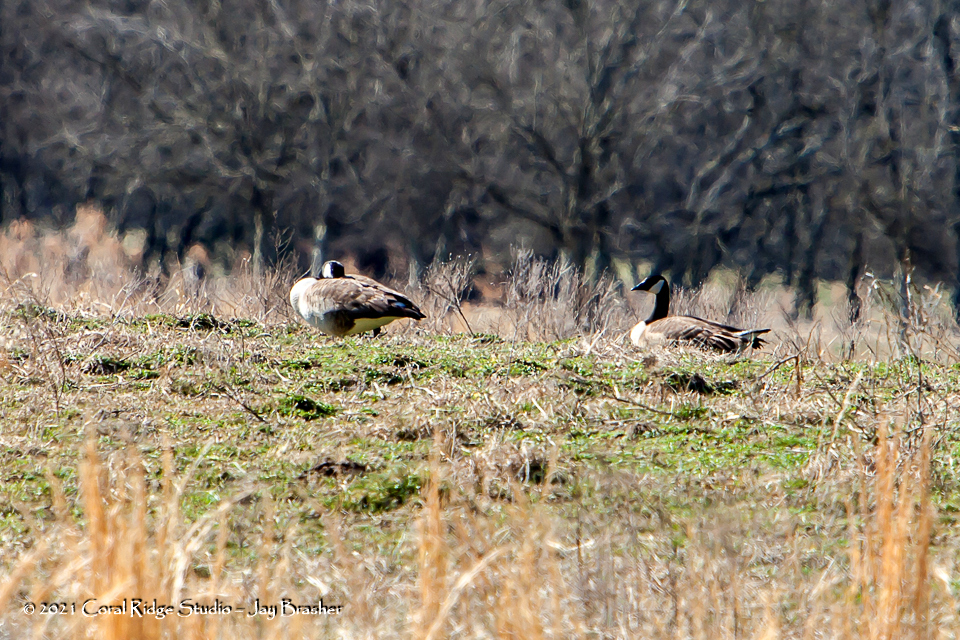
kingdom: Animalia
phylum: Chordata
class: Aves
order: Anseriformes
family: Anatidae
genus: Branta
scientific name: Branta canadensis
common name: Canada goose
